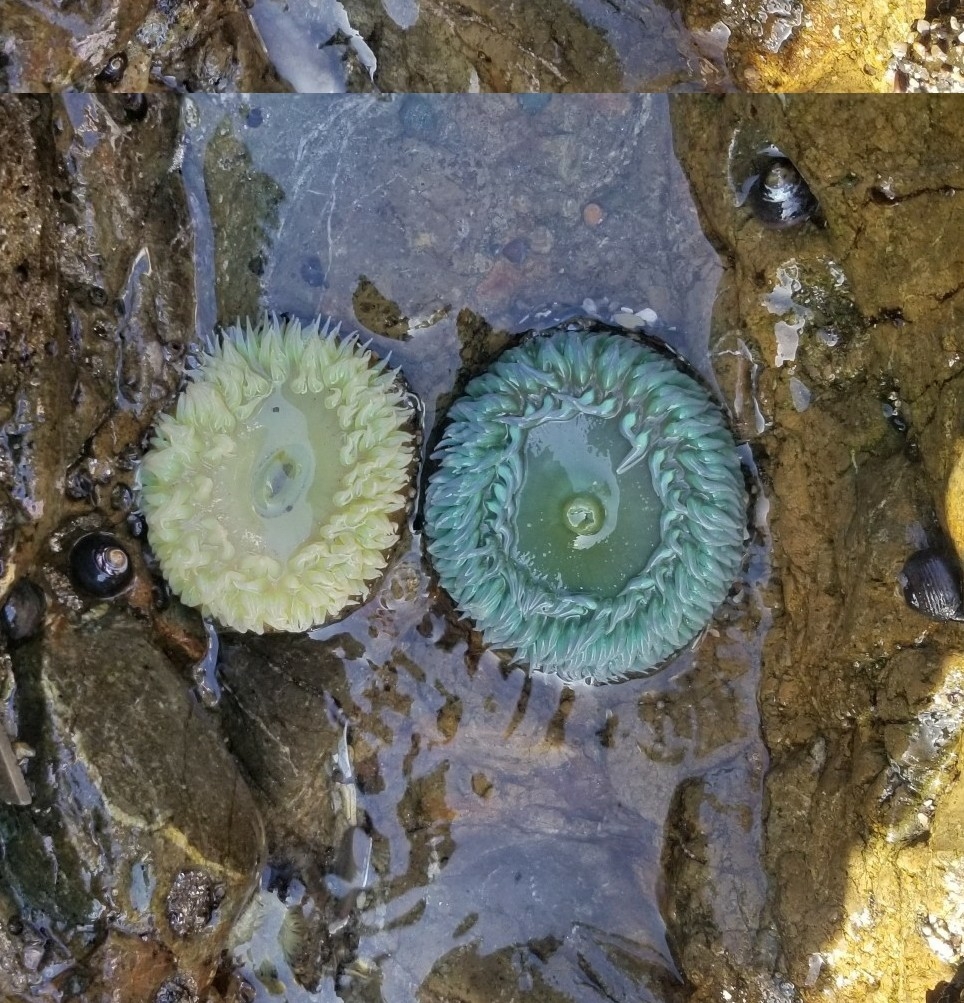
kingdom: Animalia
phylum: Cnidaria
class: Anthozoa
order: Actiniaria
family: Actiniidae
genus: Anthopleura
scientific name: Anthopleura xanthogrammica
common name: Giant green anemone
